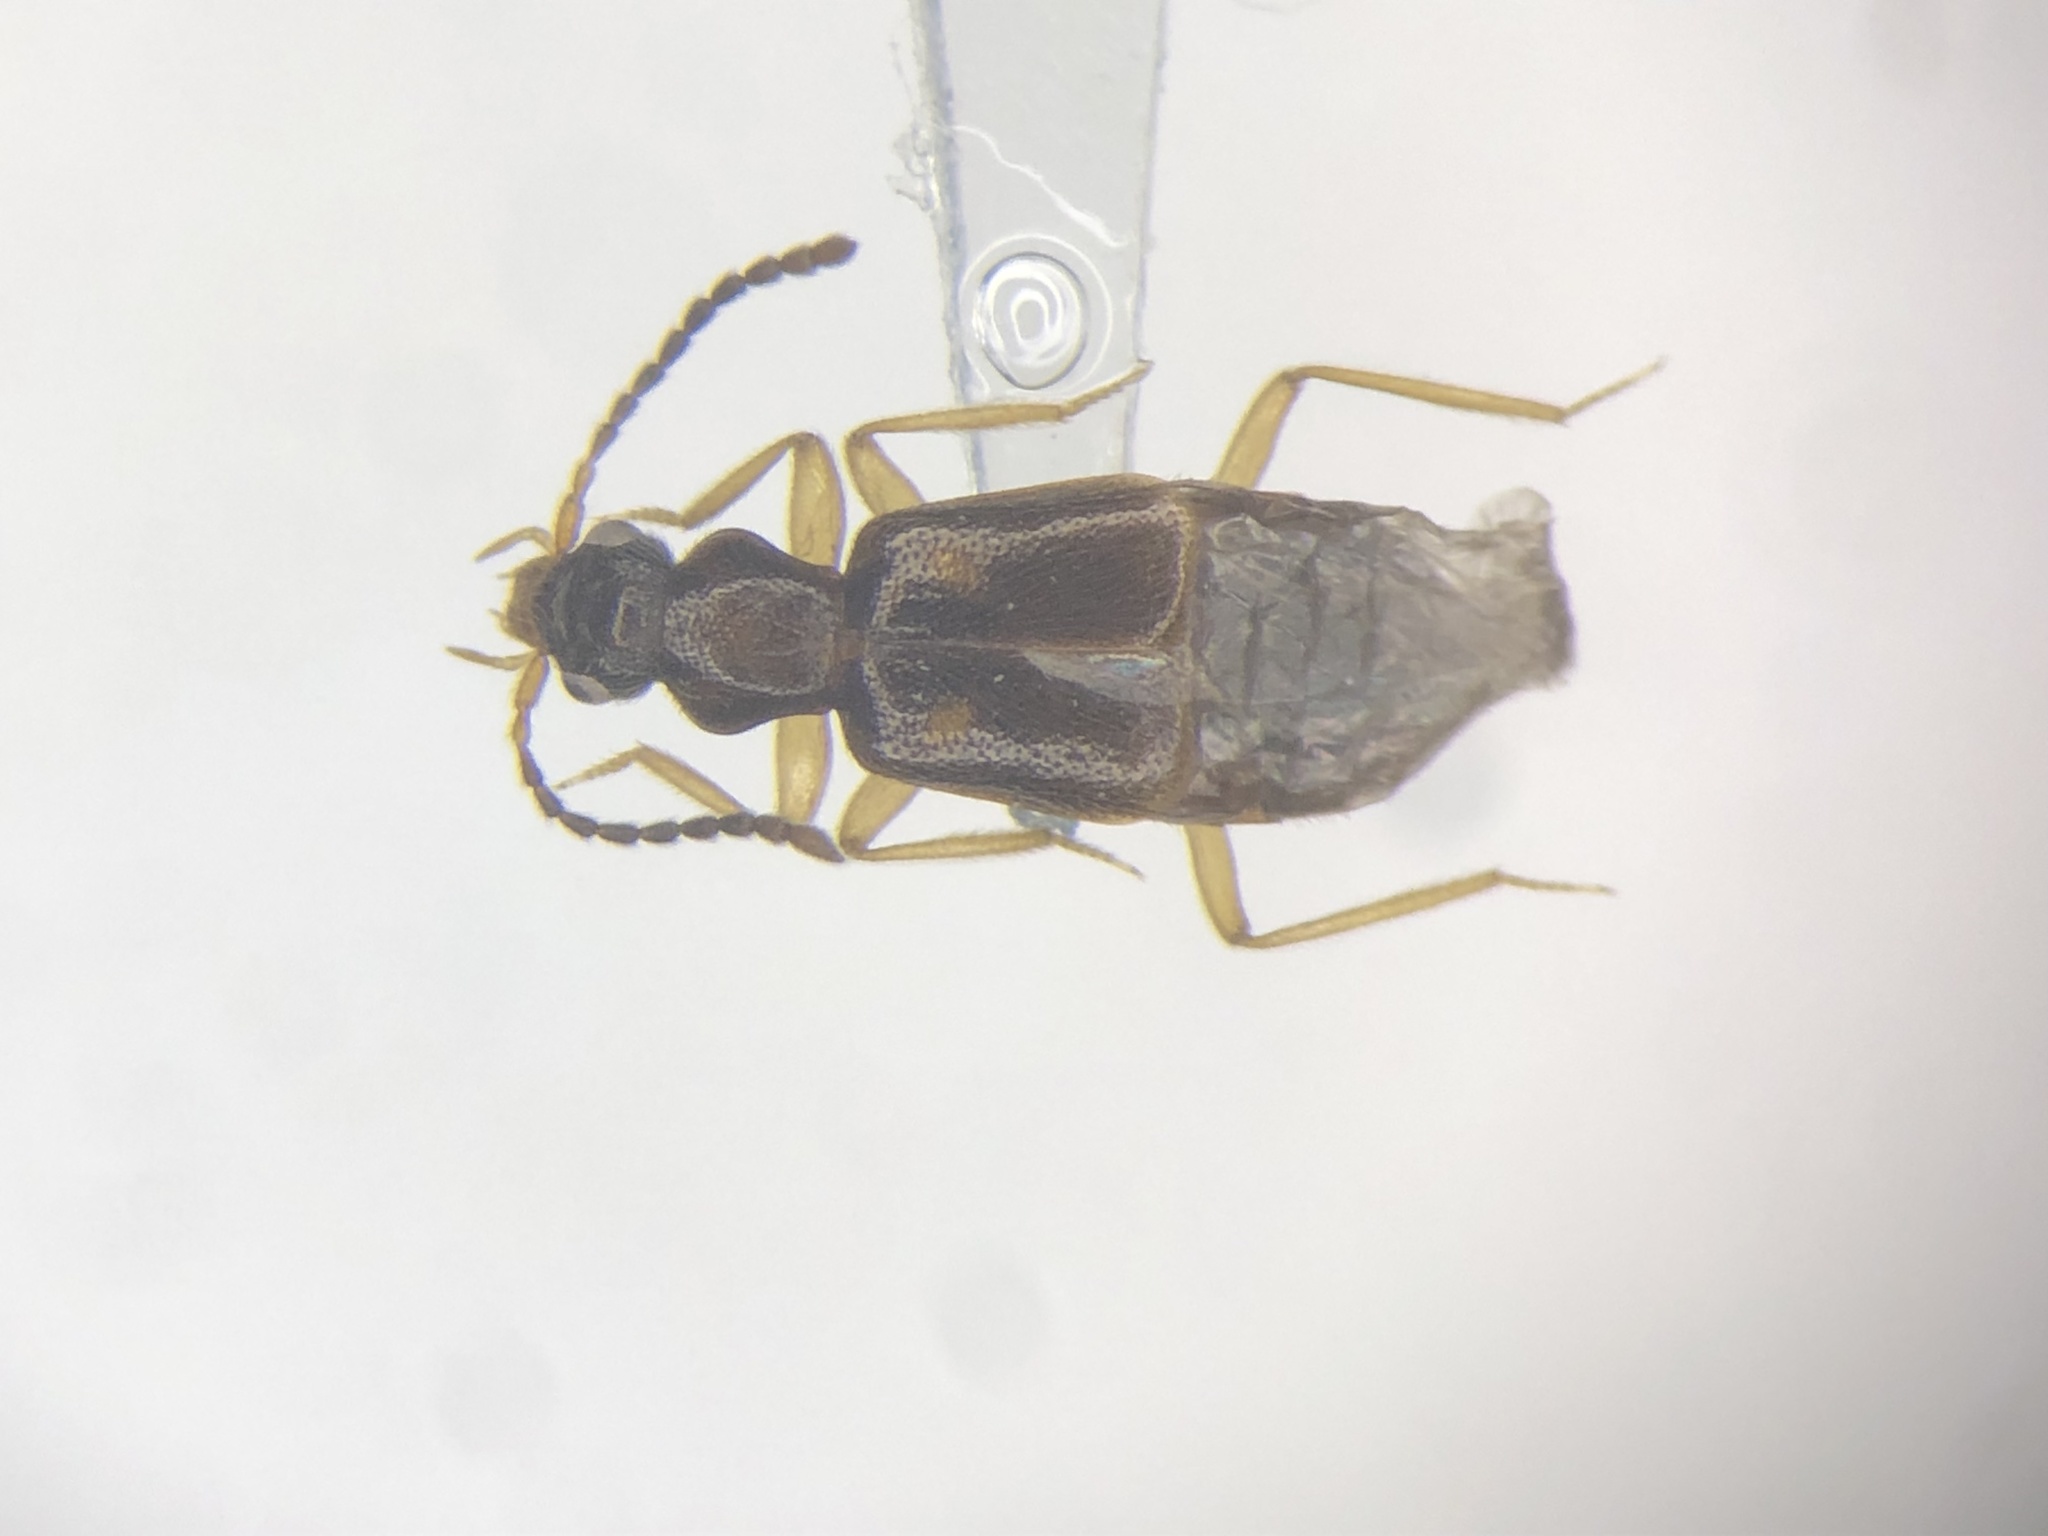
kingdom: Animalia
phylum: Arthropoda
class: Insecta
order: Coleoptera
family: Staphylinidae
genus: Lesteva
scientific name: Lesteva pallipes
